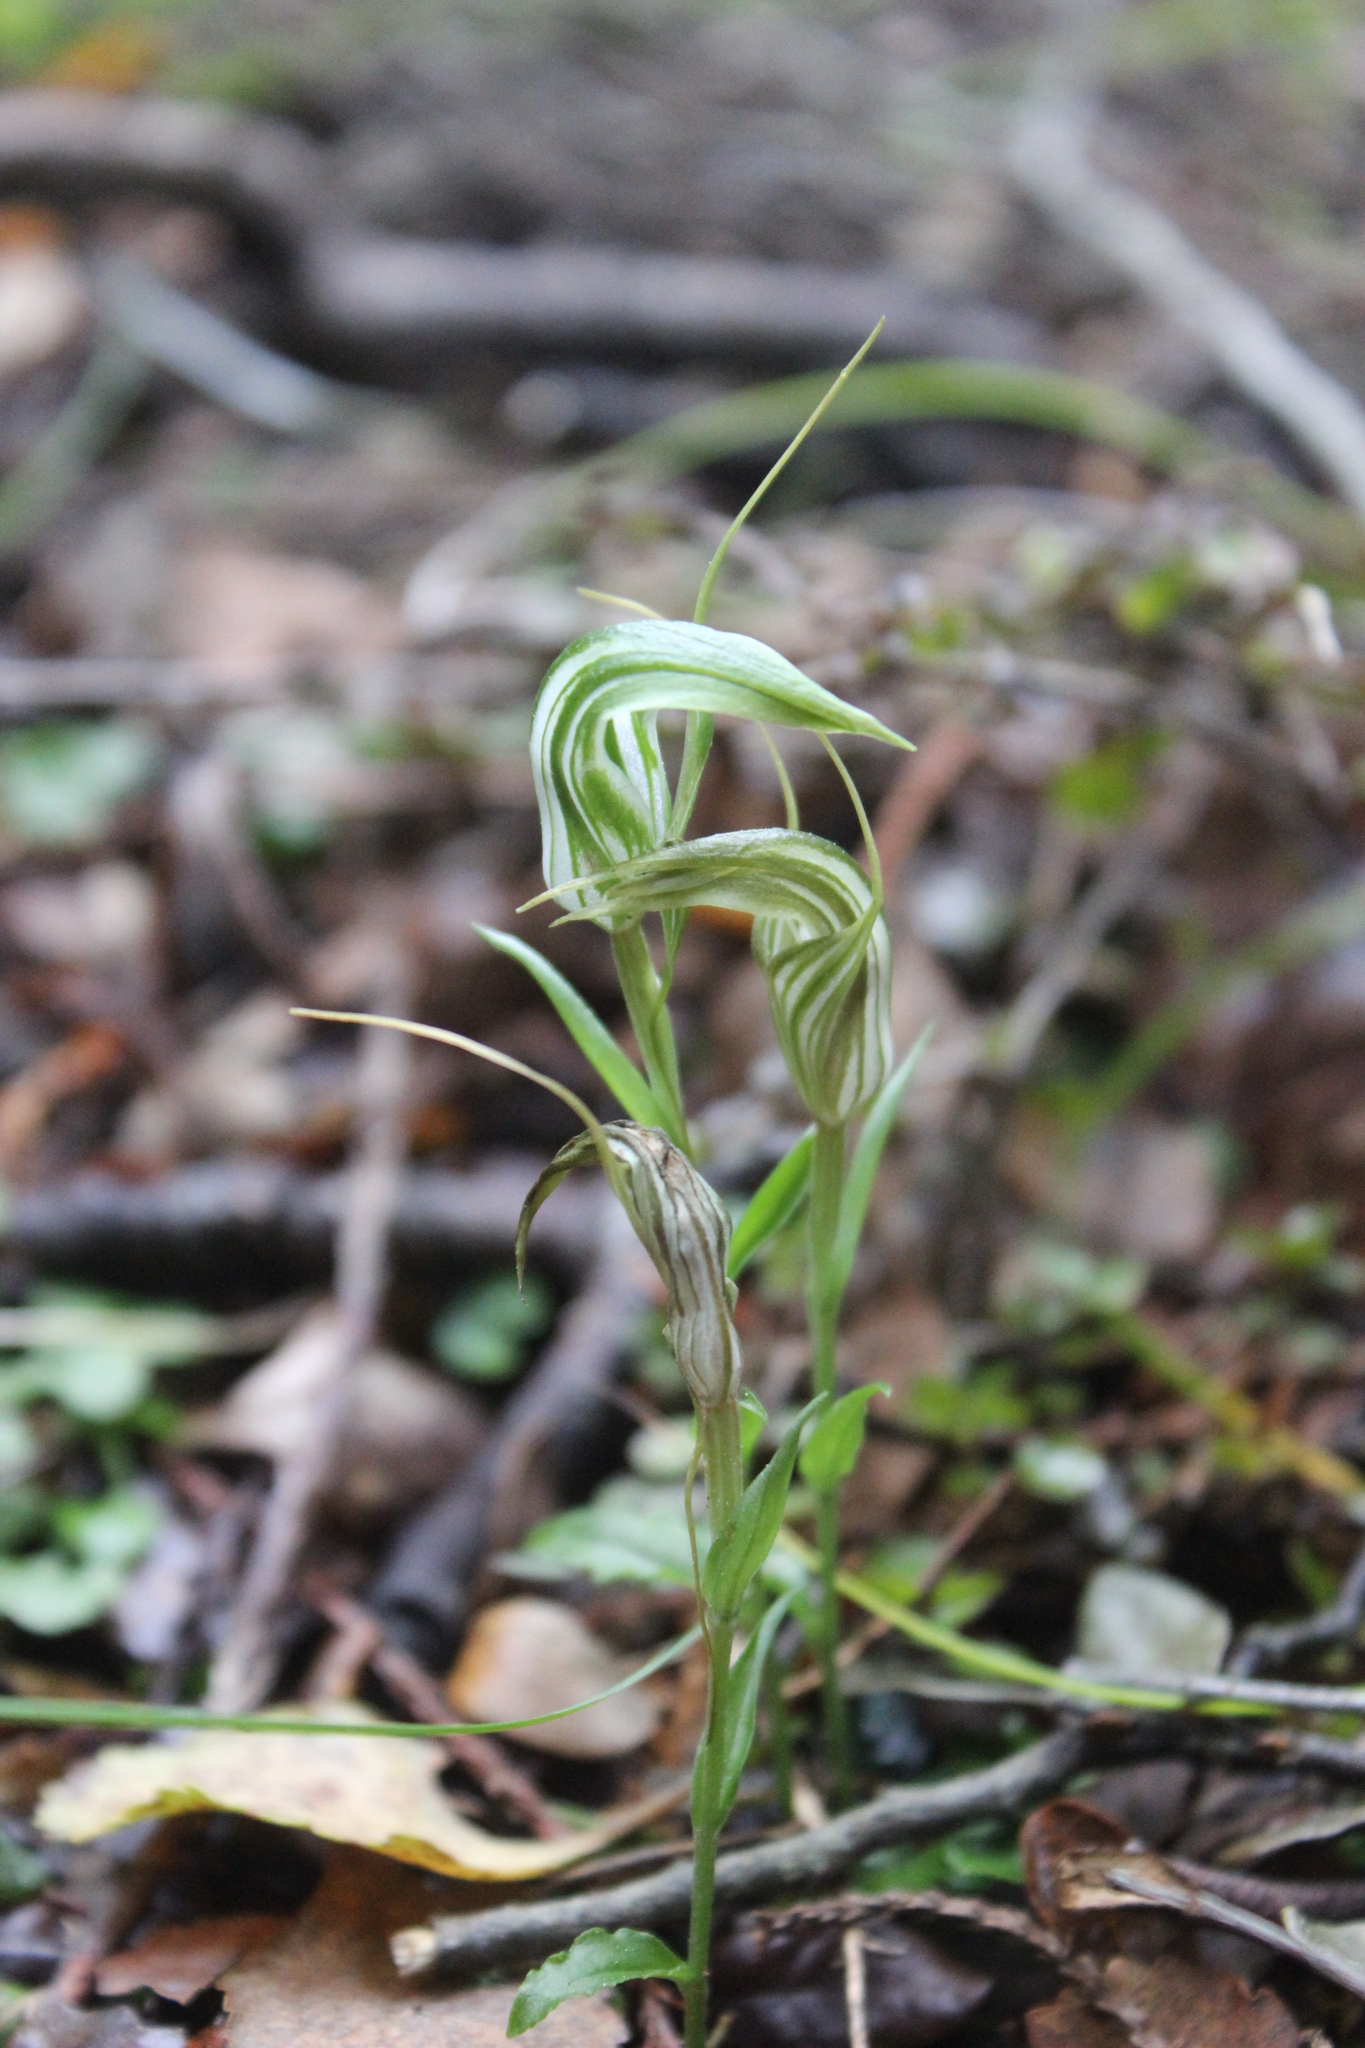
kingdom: Plantae
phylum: Tracheophyta
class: Liliopsida
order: Asparagales
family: Orchidaceae
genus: Pterostylis
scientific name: Pterostylis alobula
